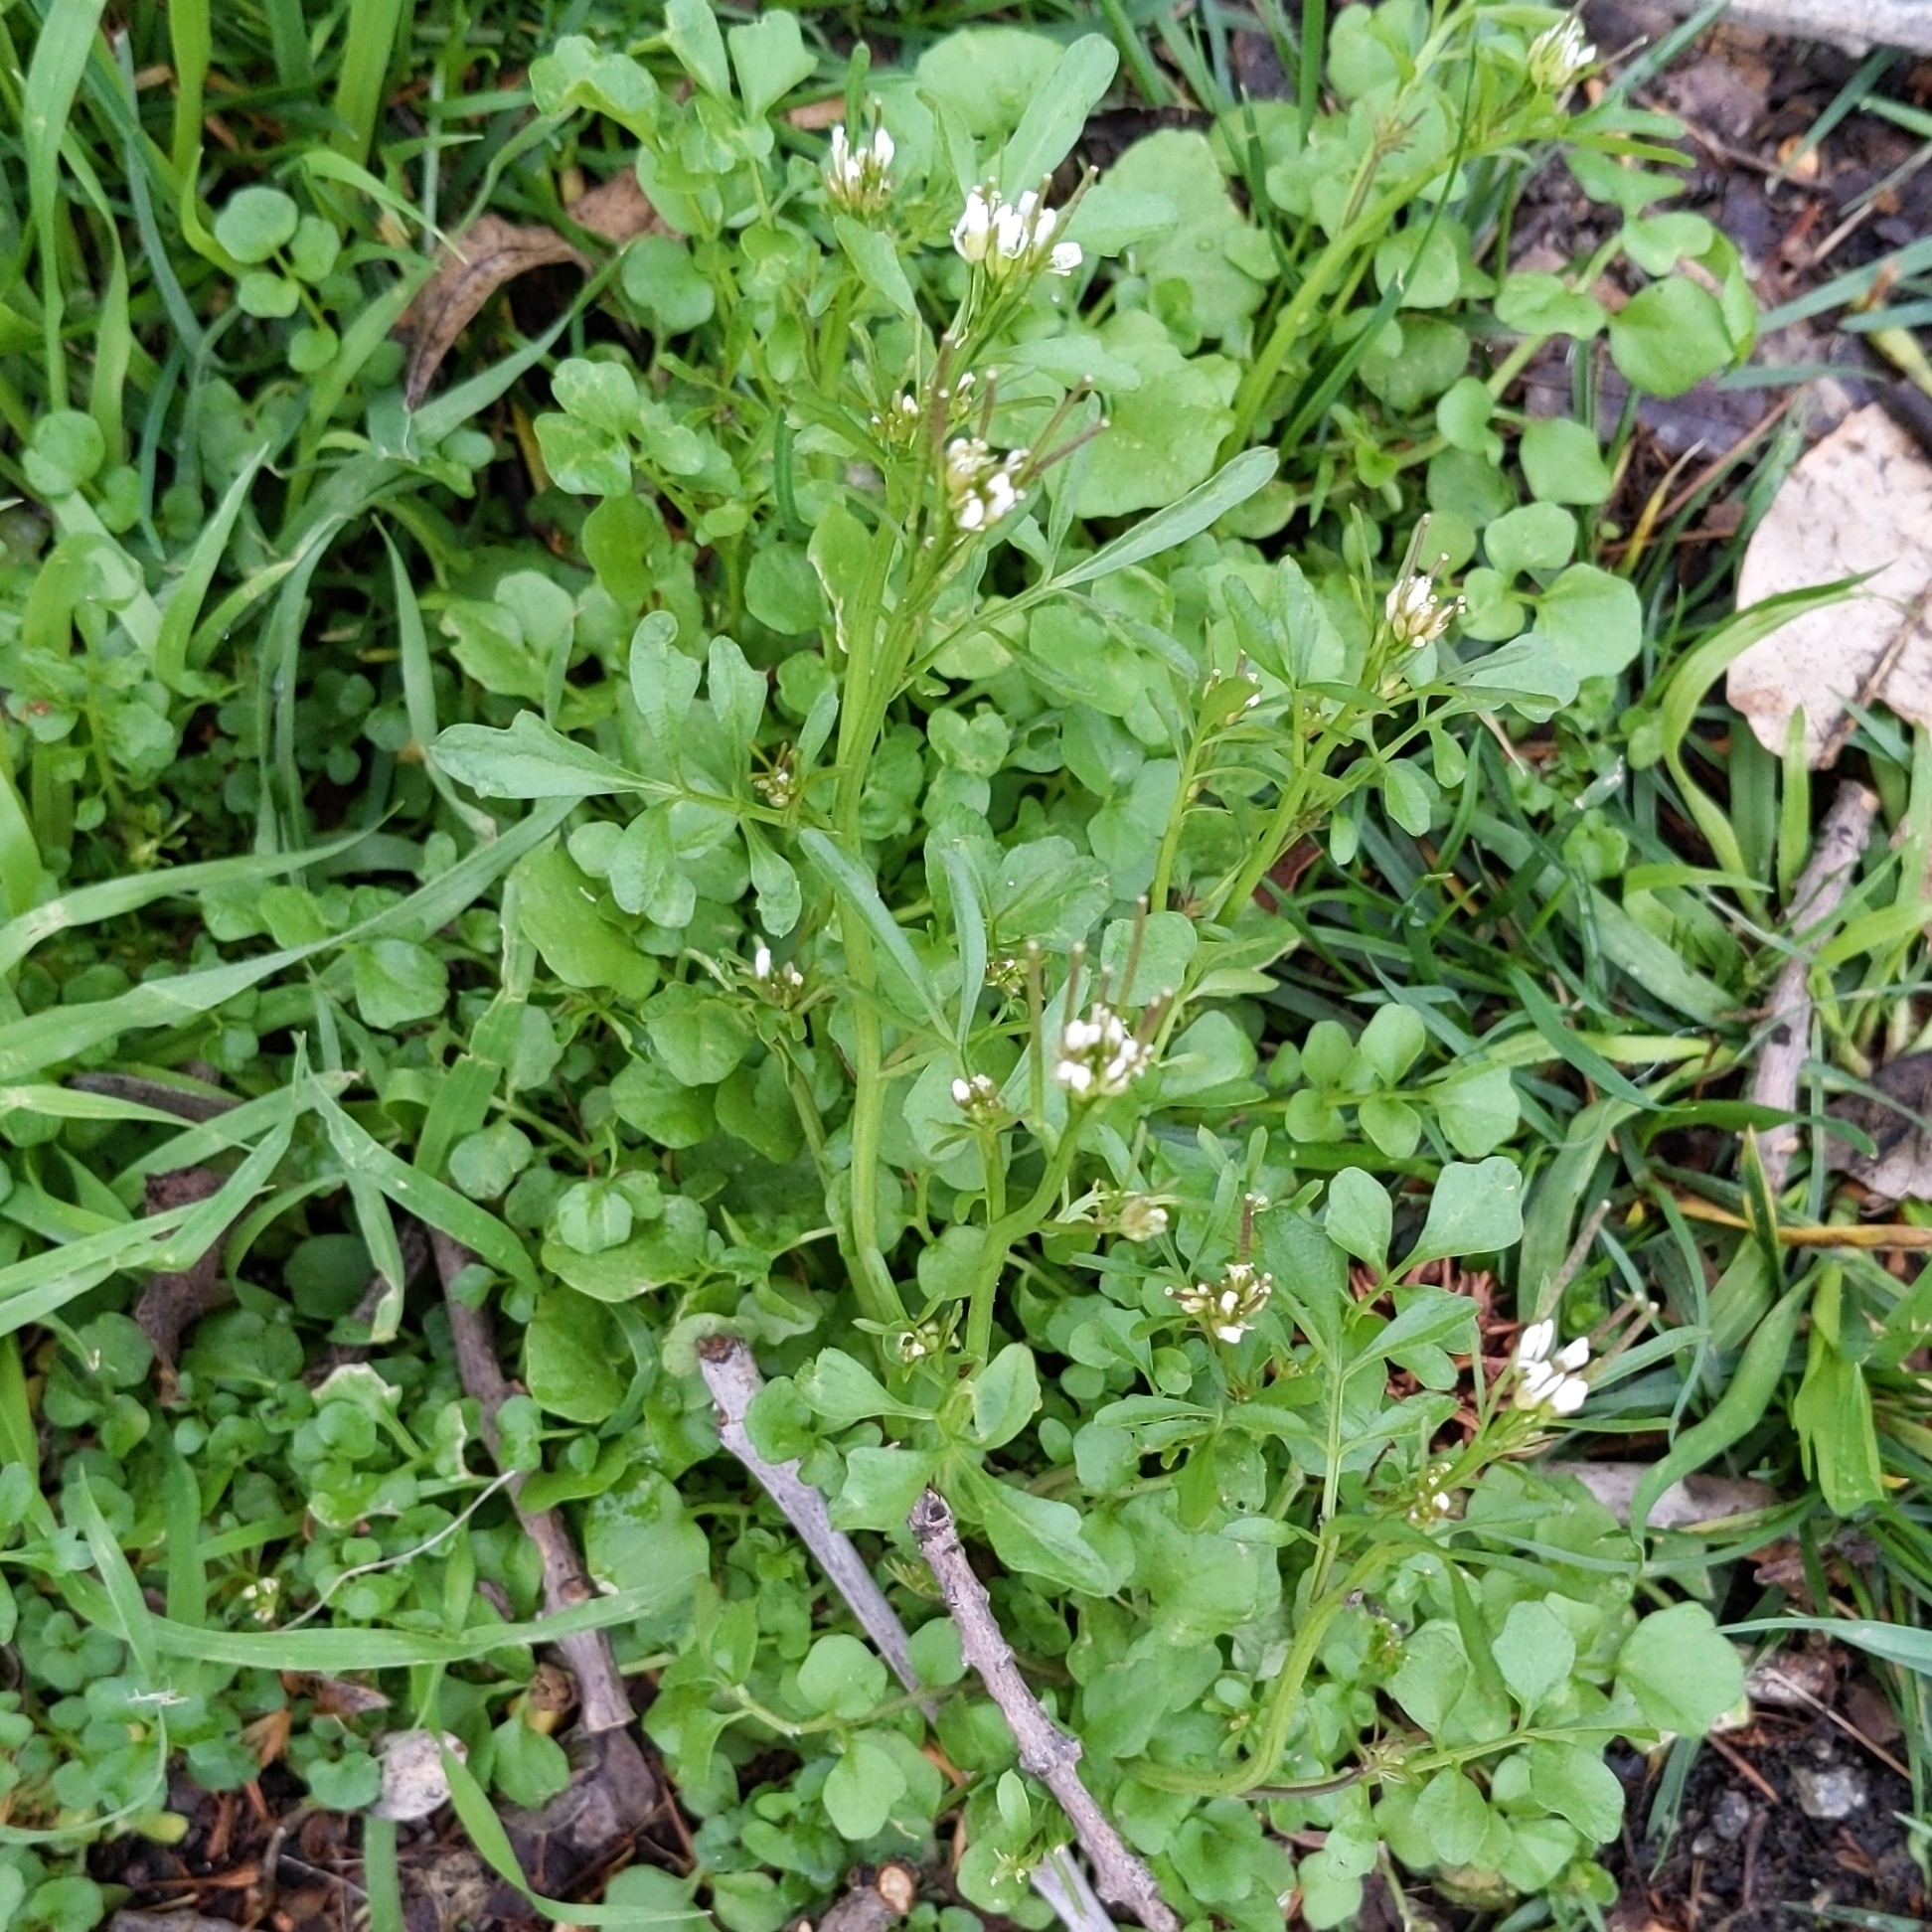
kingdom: Plantae
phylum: Tracheophyta
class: Magnoliopsida
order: Brassicales
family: Brassicaceae
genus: Cardamine
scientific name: Cardamine hirsuta
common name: Hairy bittercress
